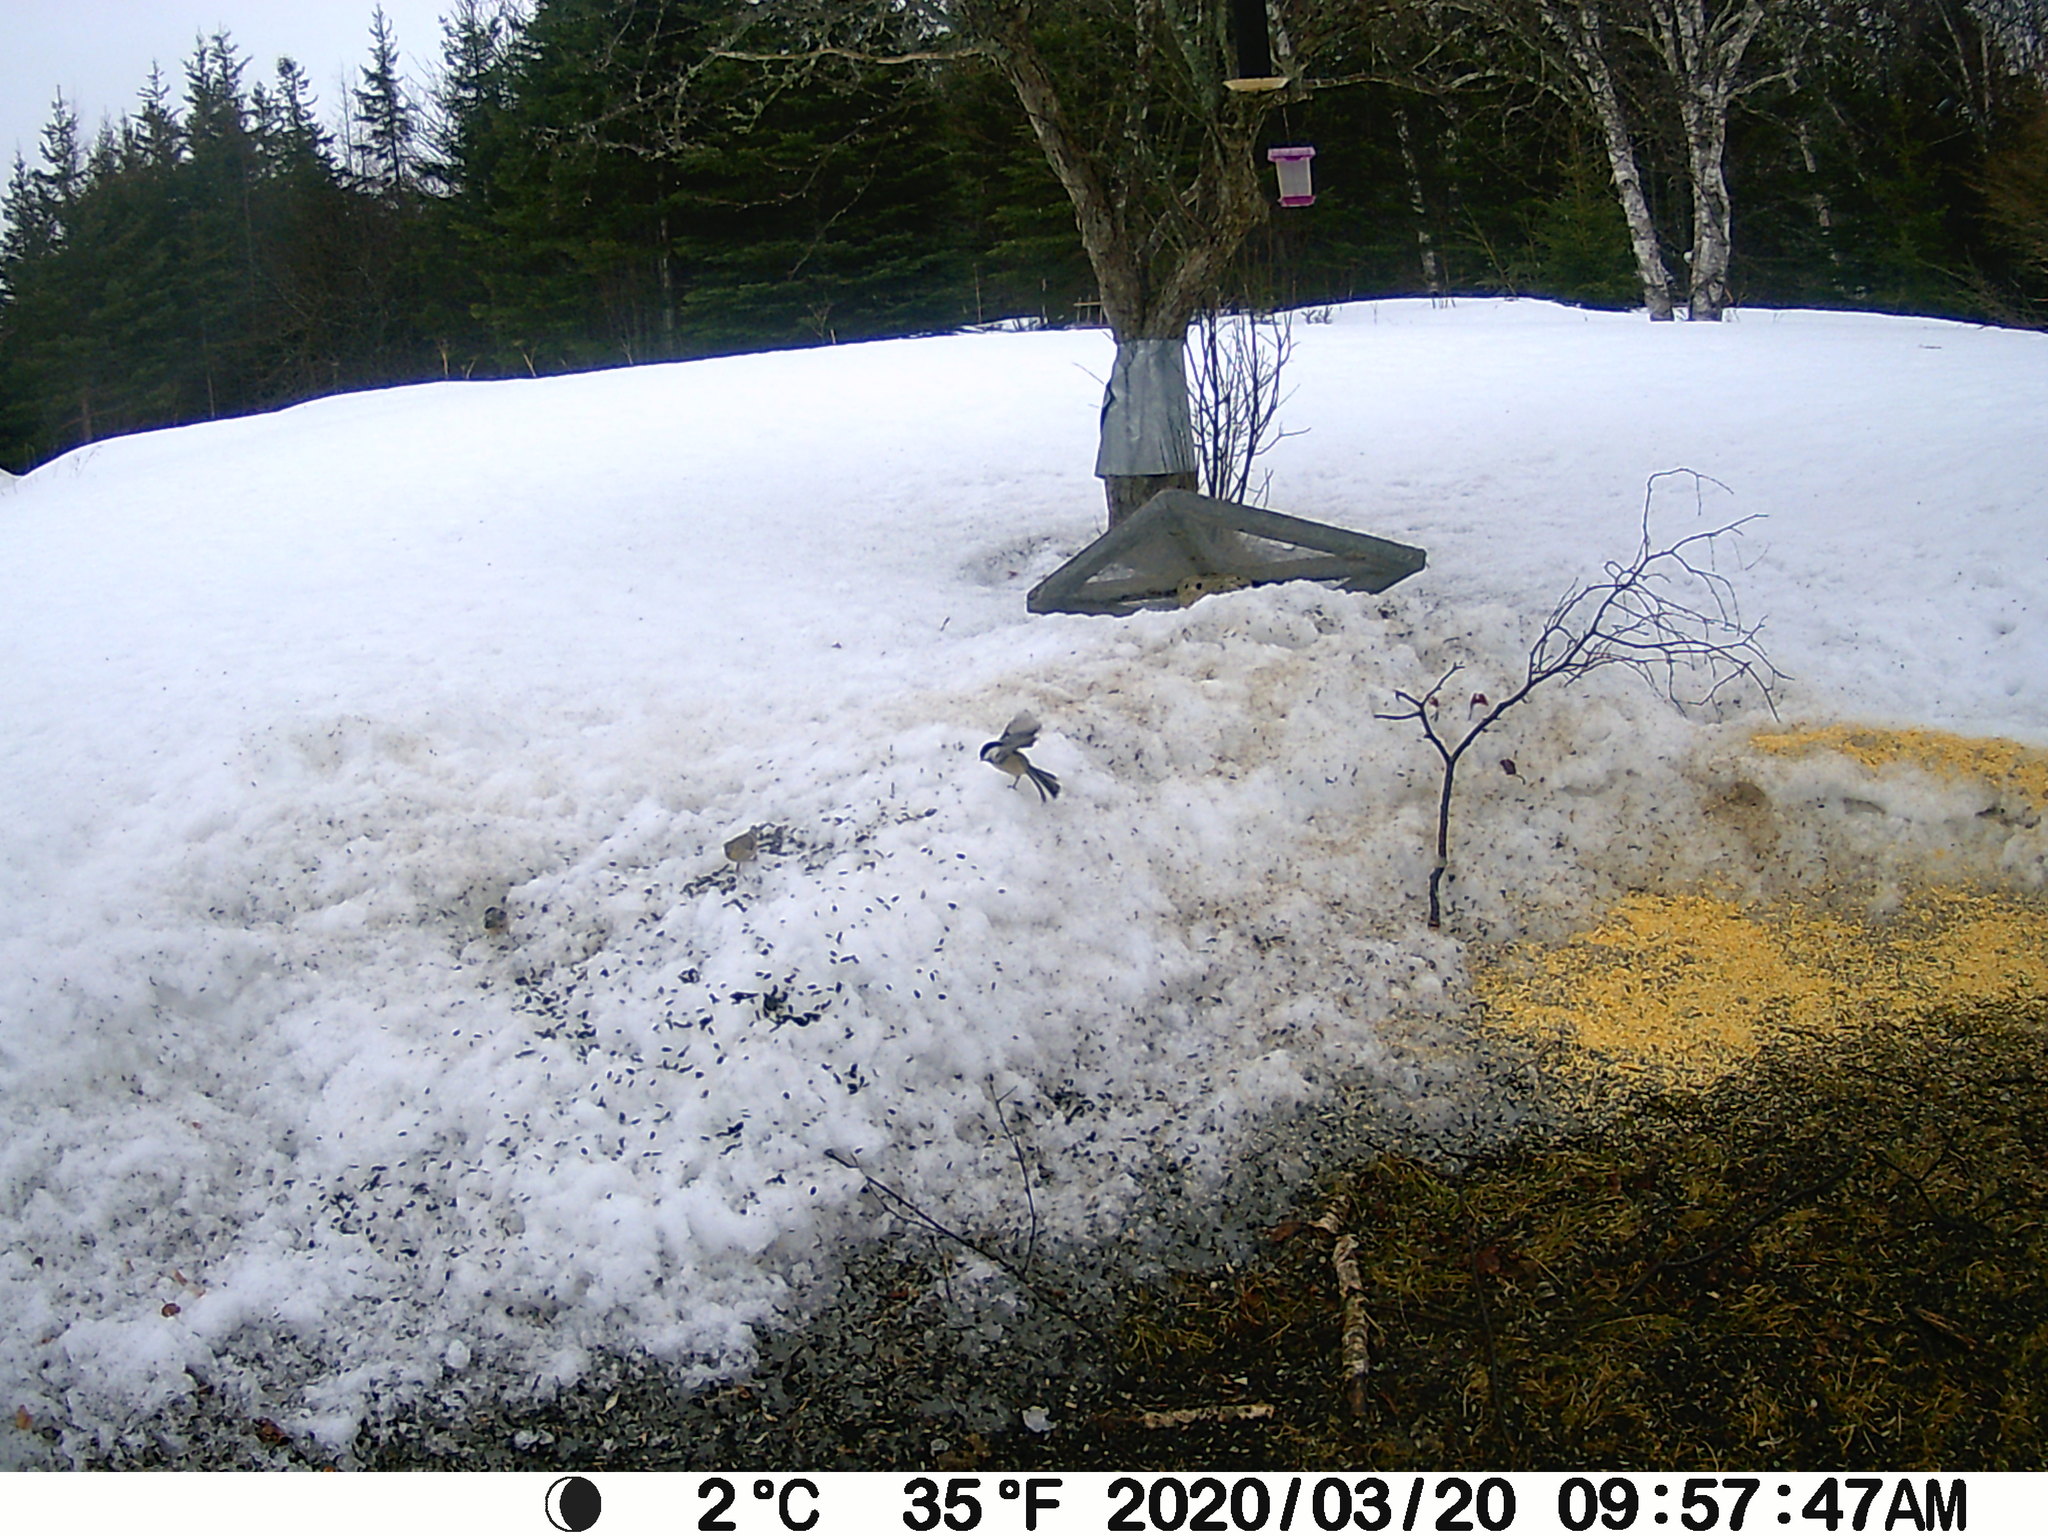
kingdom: Animalia
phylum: Chordata
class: Aves
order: Passeriformes
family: Paridae
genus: Poecile
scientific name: Poecile atricapillus
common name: Black-capped chickadee
